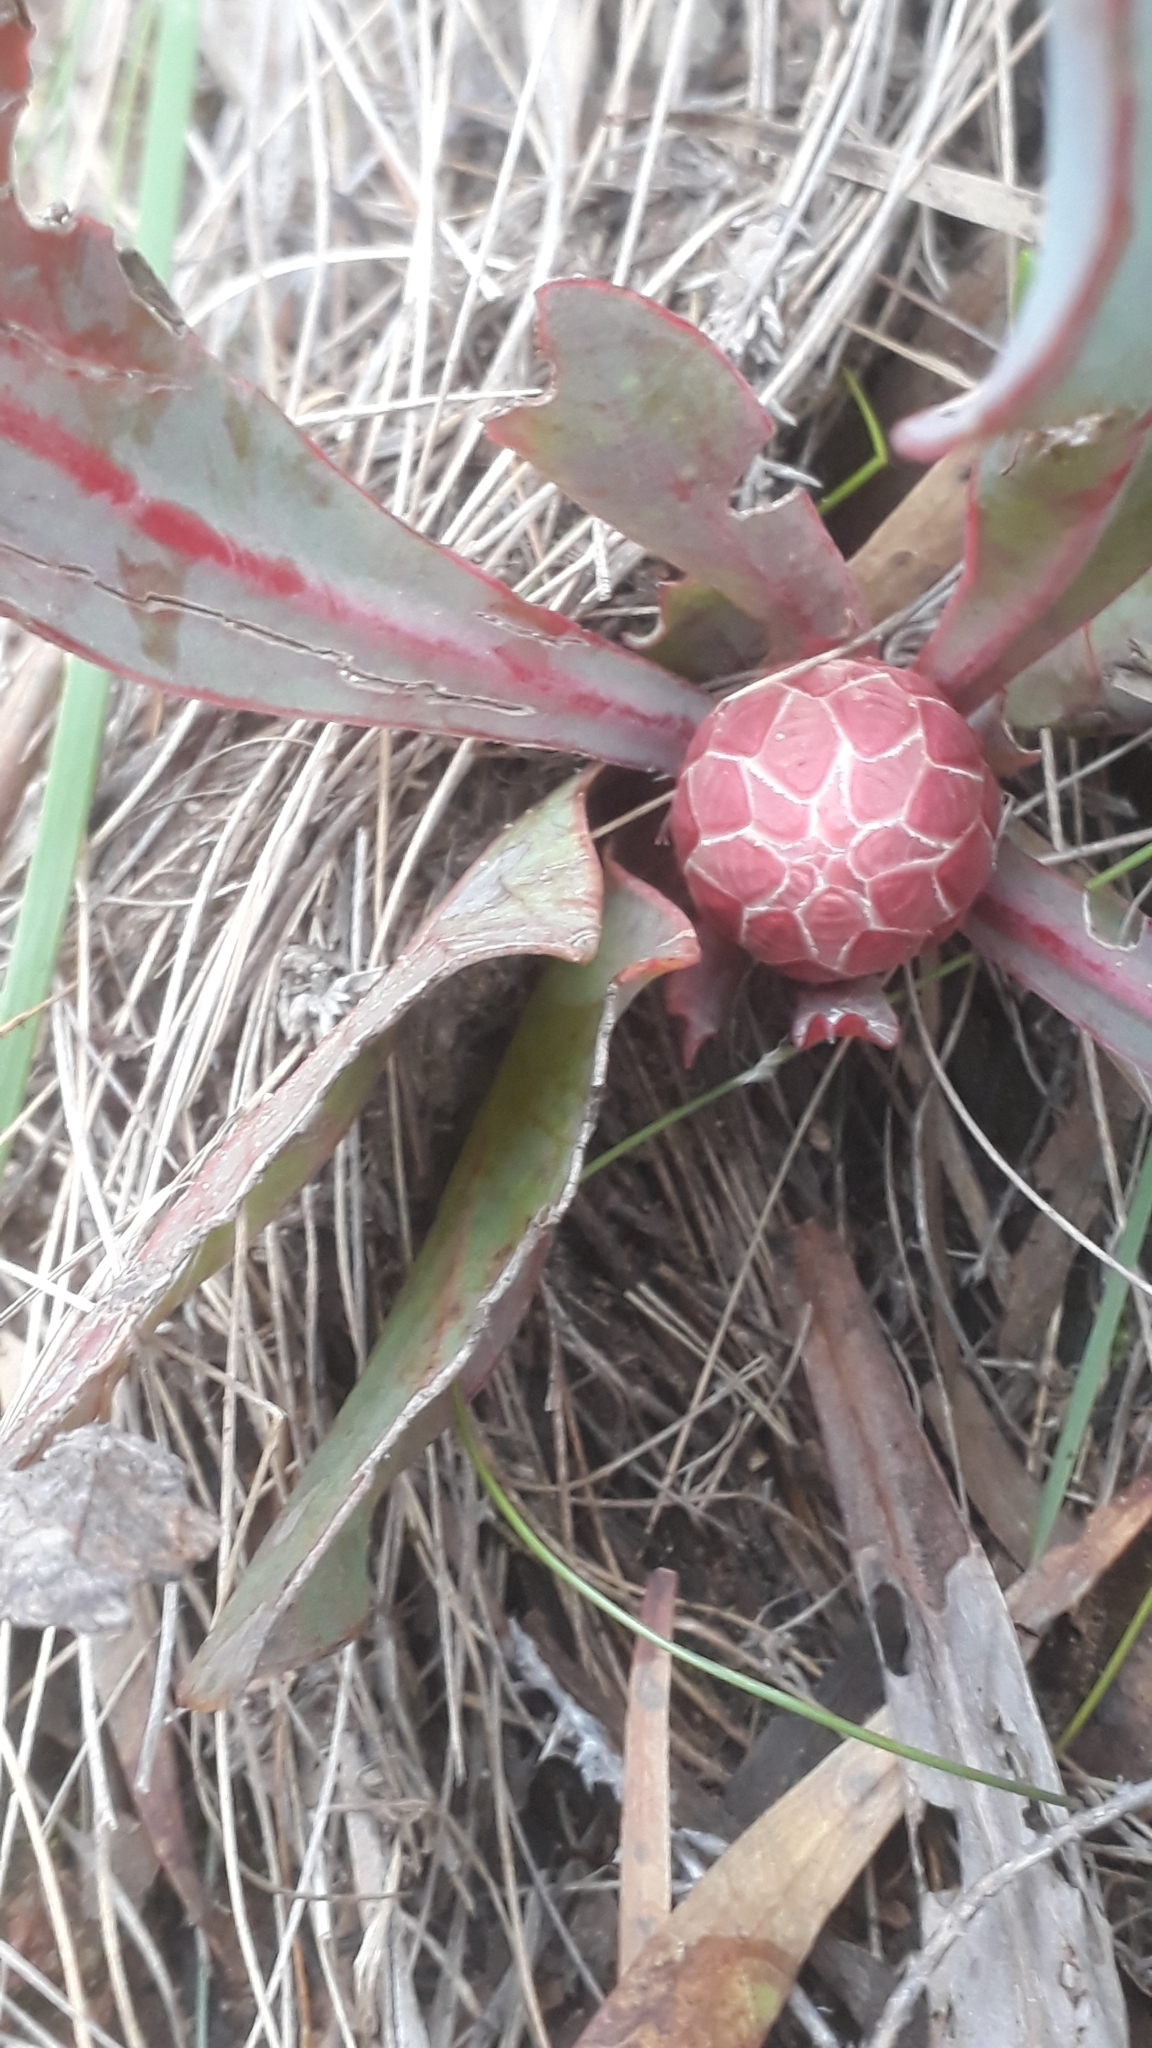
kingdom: Plantae
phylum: Tracheophyta
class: Magnoliopsida
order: Proteales
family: Proteaceae
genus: Protea
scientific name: Protea acaulos
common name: Common ground sugarbush
